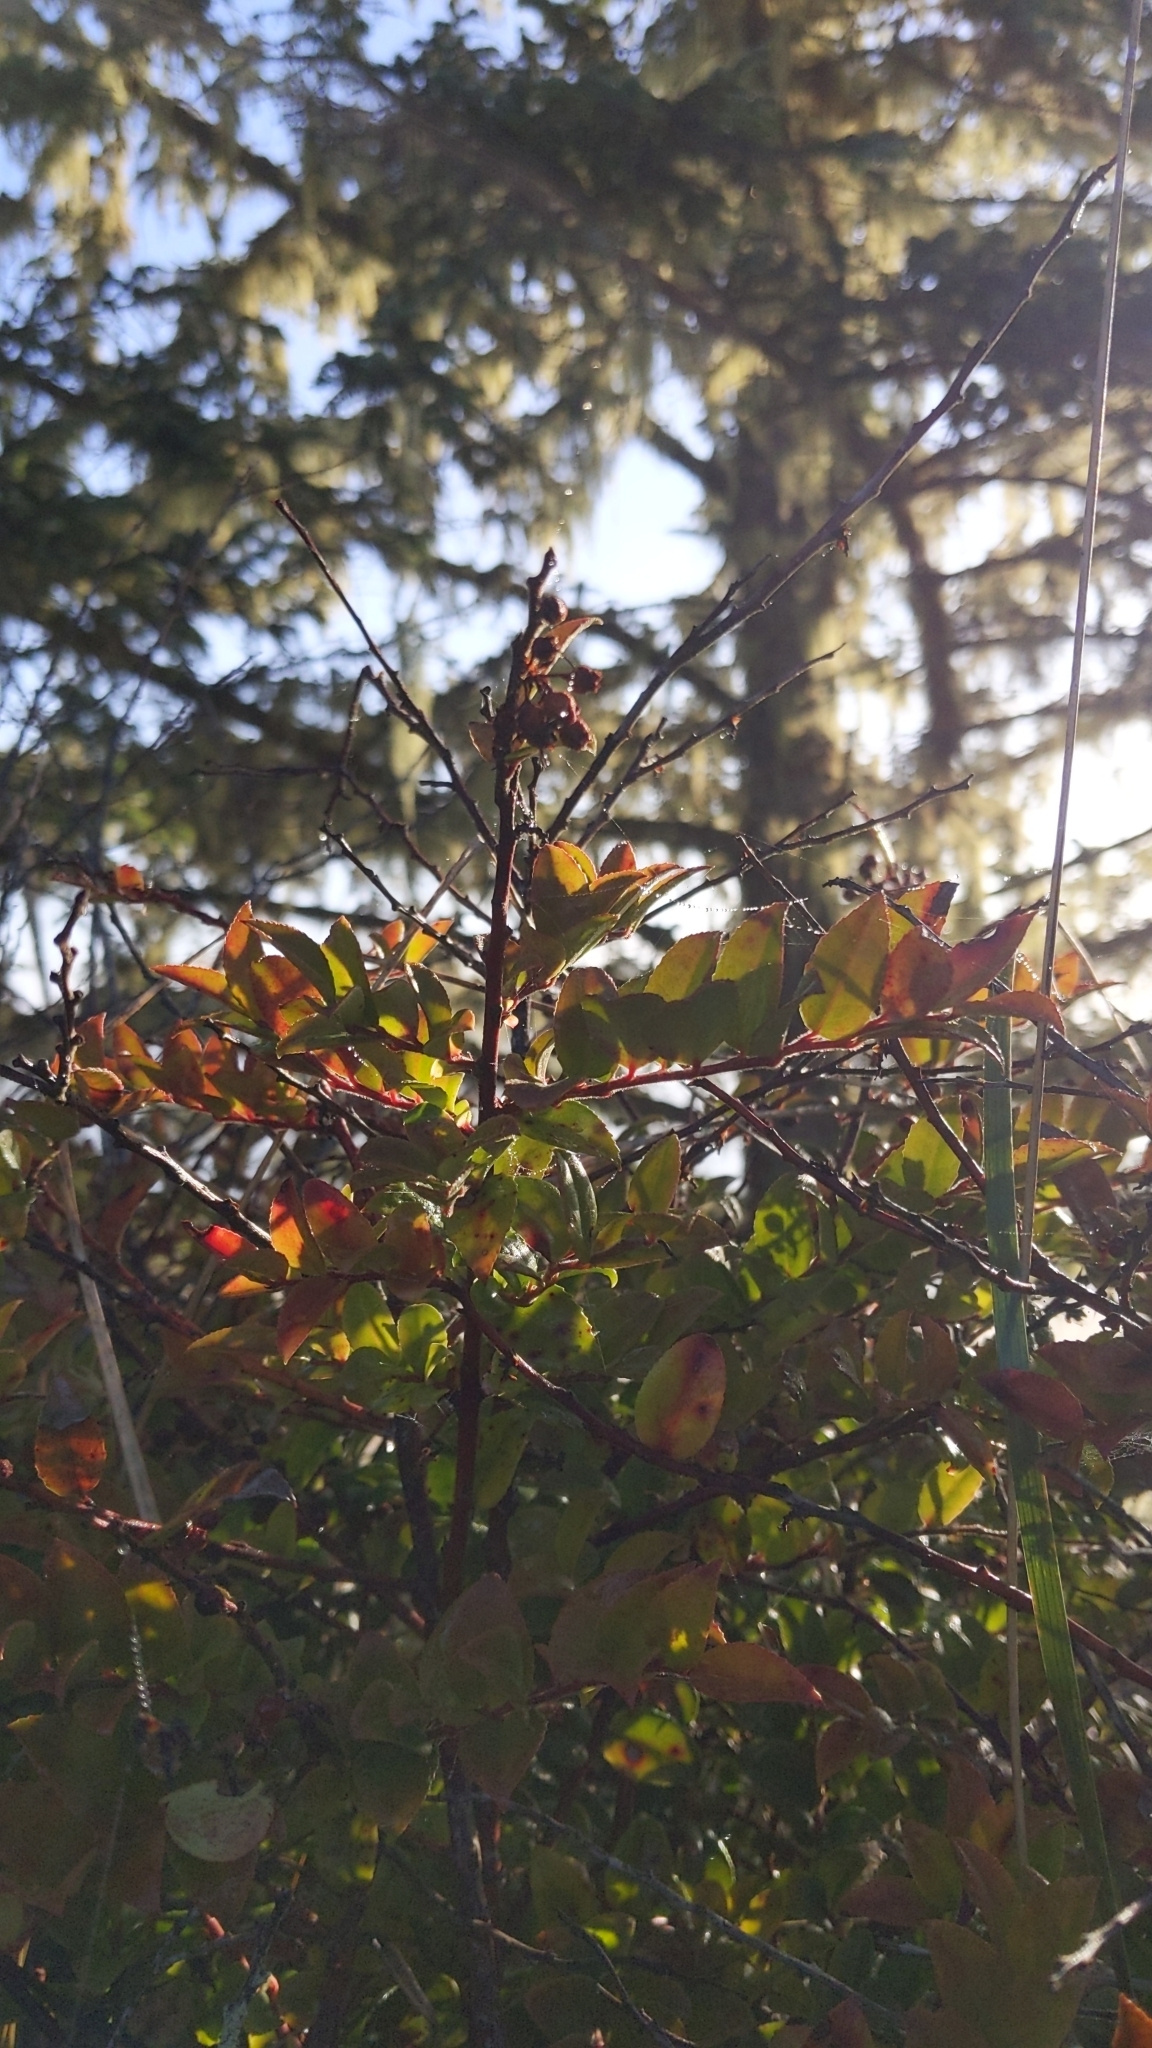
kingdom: Plantae
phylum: Tracheophyta
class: Magnoliopsida
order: Ericales
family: Ericaceae
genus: Vaccinium
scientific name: Vaccinium ovatum
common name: California-huckleberry
